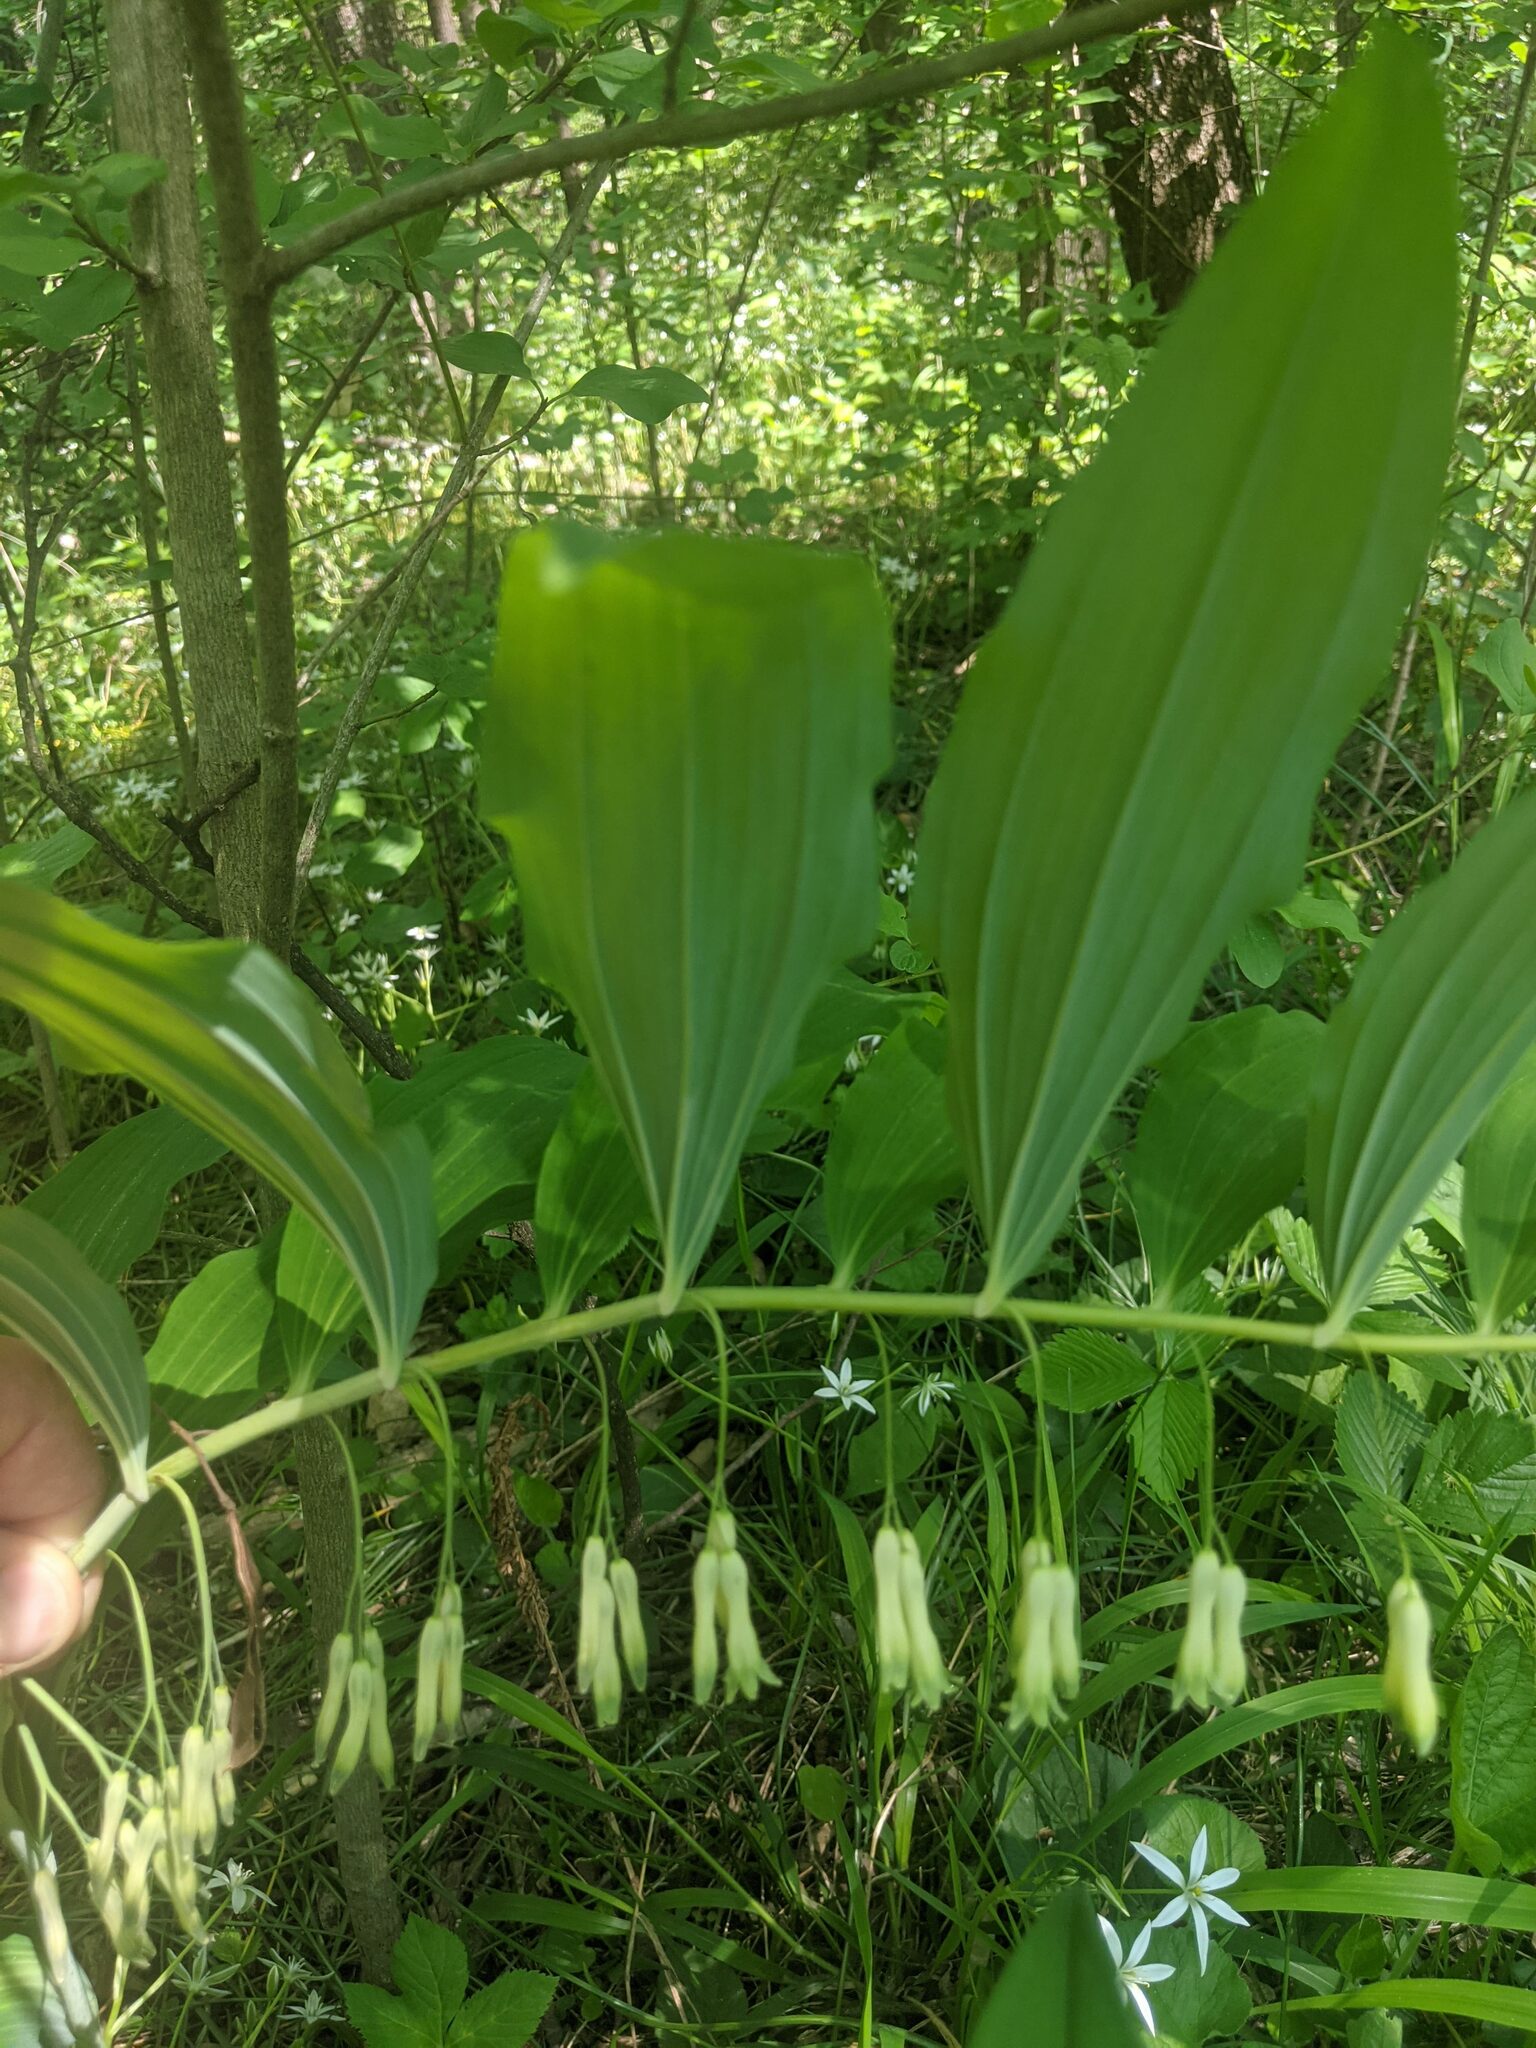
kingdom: Plantae
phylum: Tracheophyta
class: Liliopsida
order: Asparagales
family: Asparagaceae
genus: Polygonatum
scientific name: Polygonatum multiflorum
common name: Solomon's-seal
